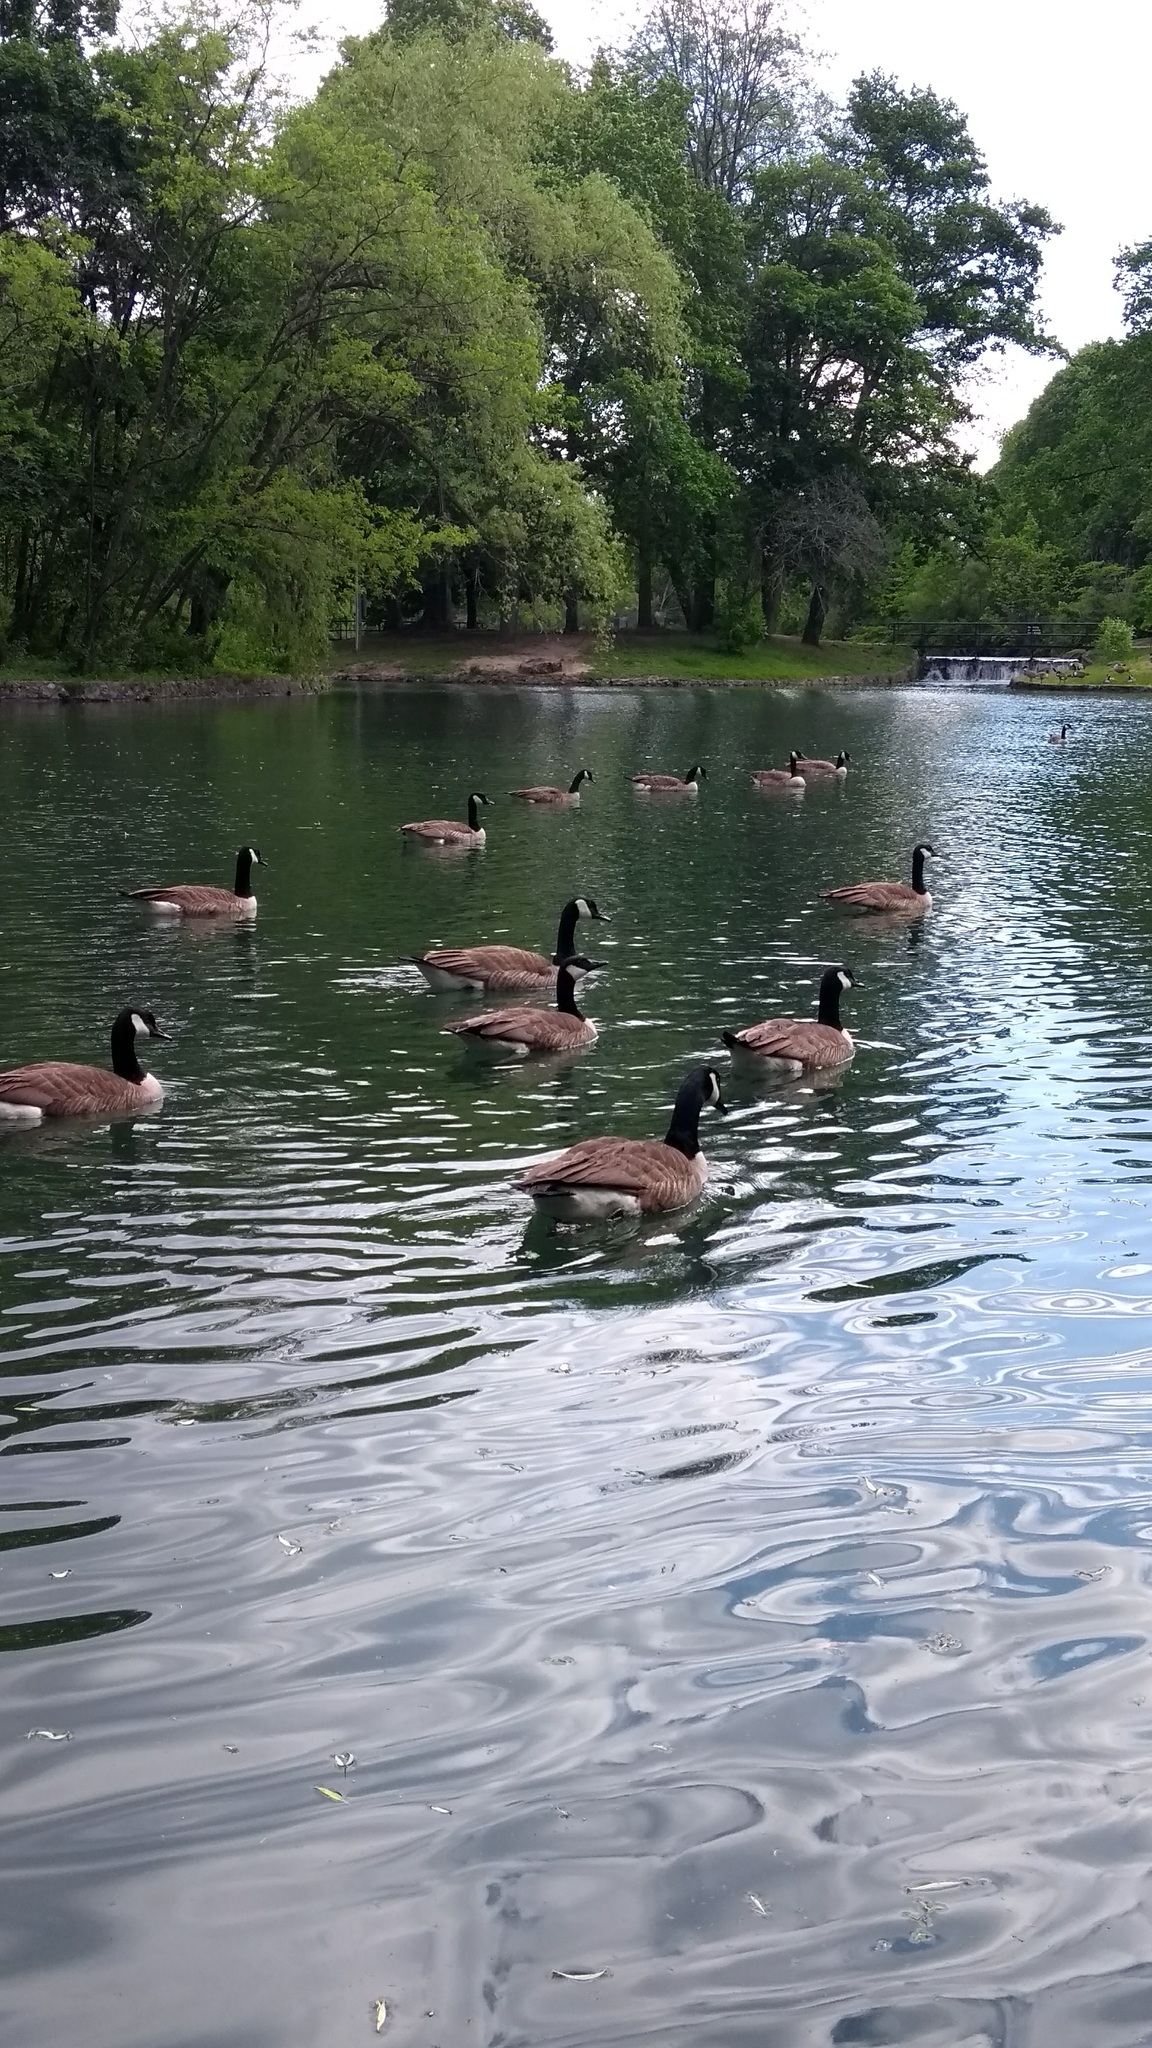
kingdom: Animalia
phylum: Chordata
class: Aves
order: Anseriformes
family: Anatidae
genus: Branta
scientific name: Branta canadensis
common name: Canada goose
